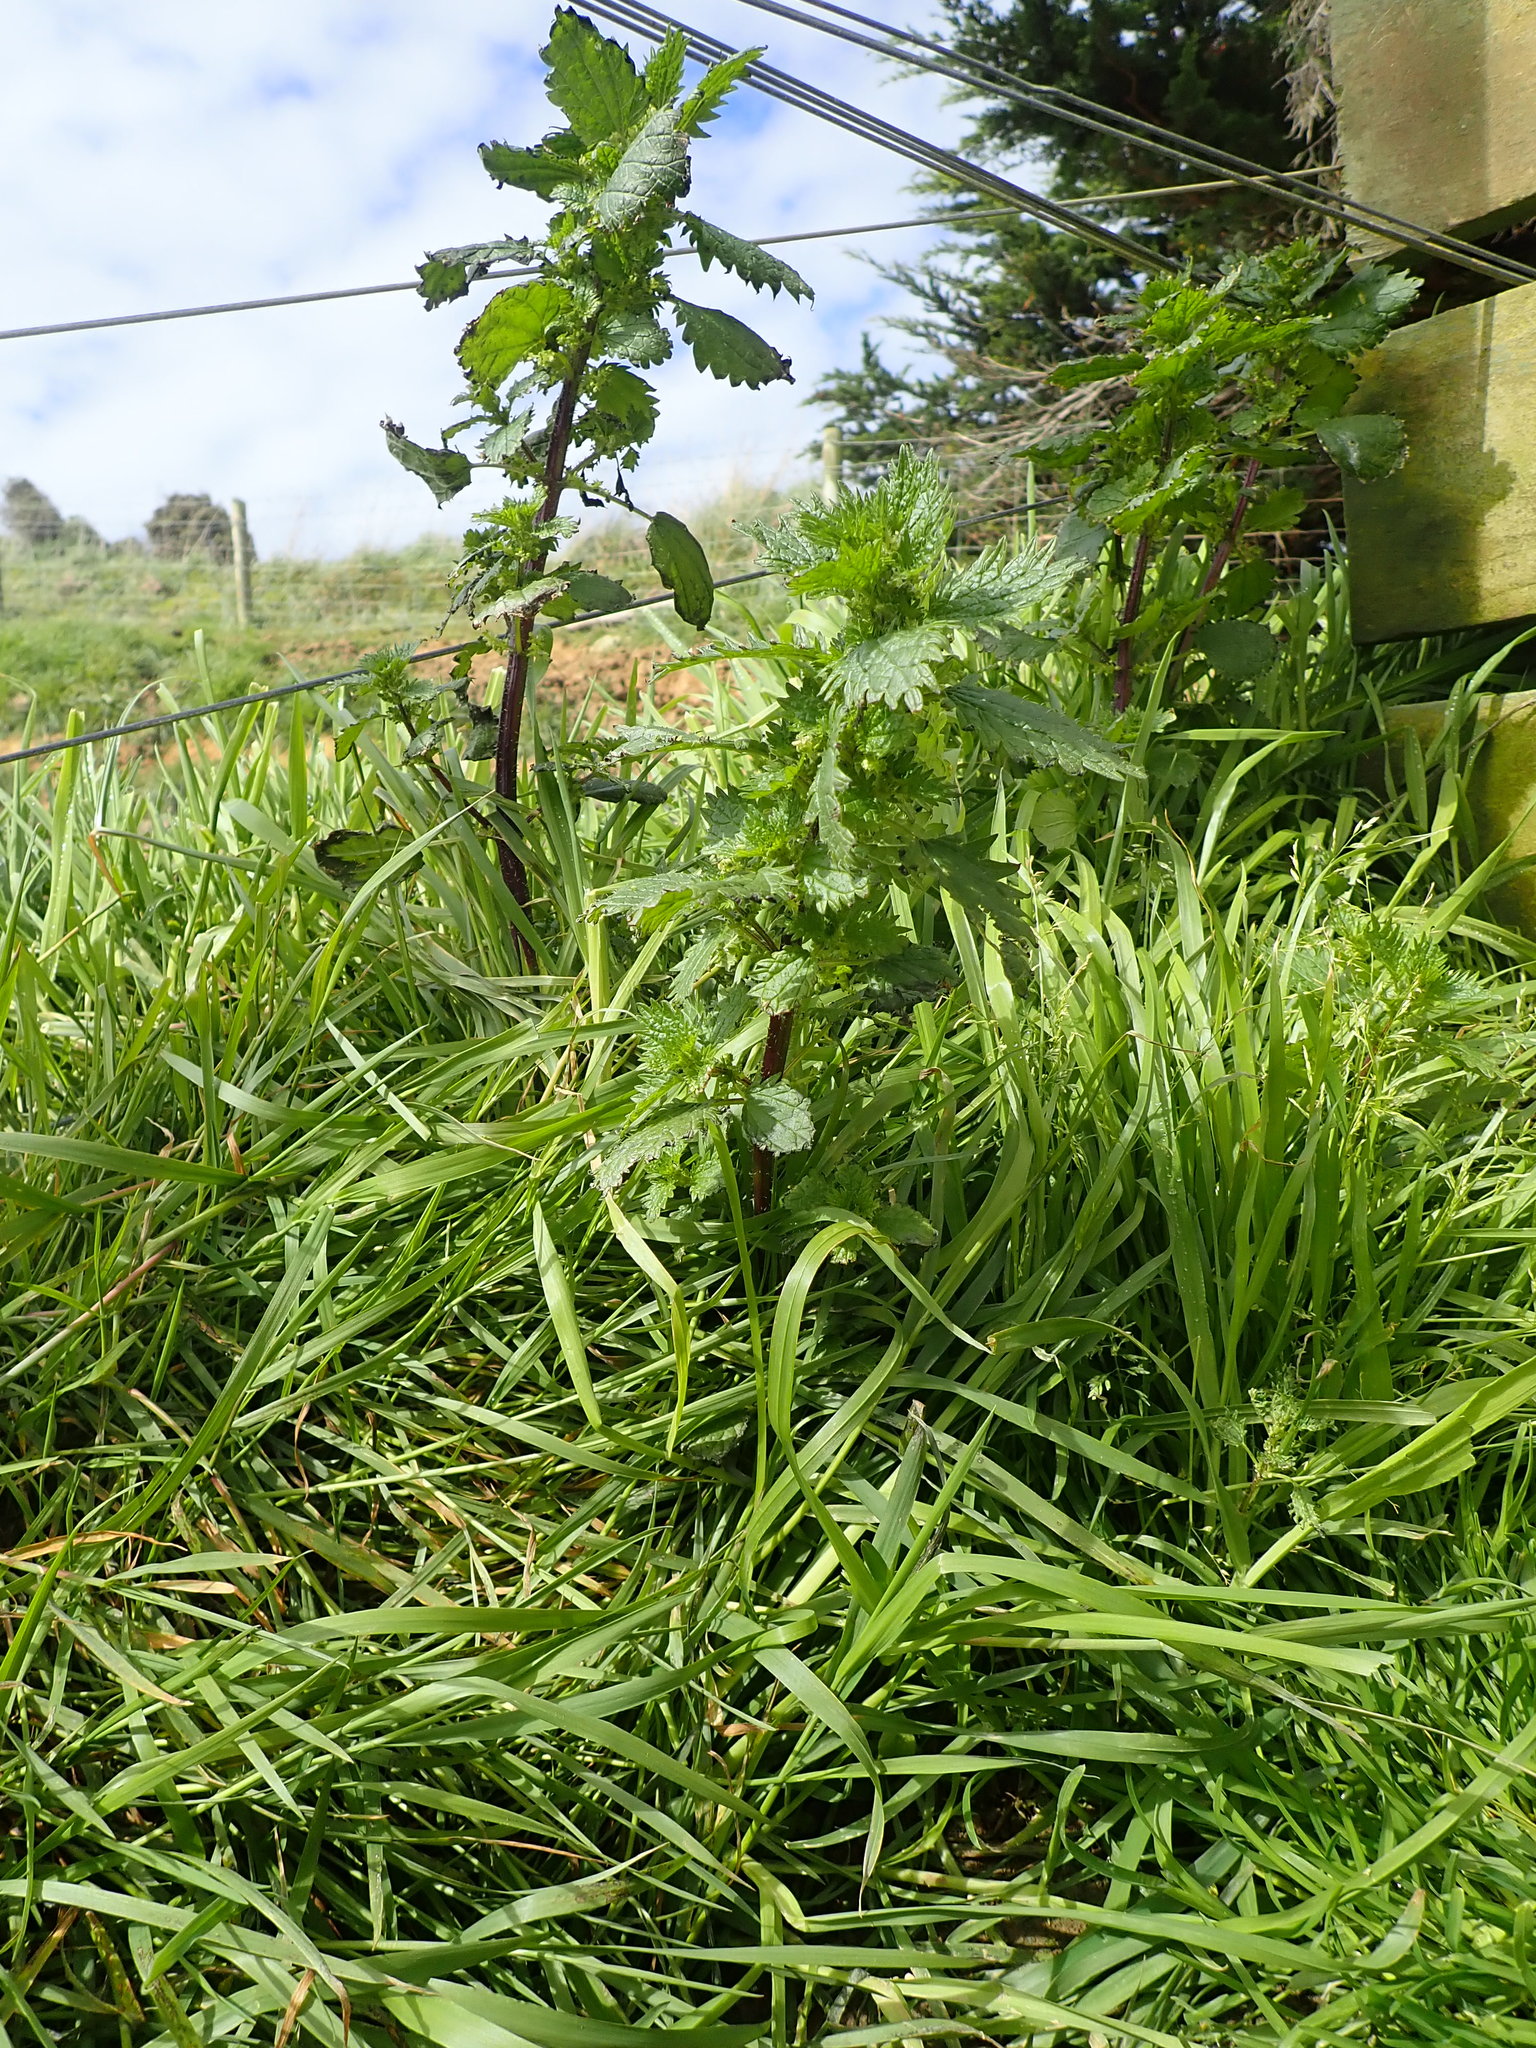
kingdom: Plantae
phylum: Tracheophyta
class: Magnoliopsida
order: Rosales
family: Urticaceae
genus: Urtica
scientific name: Urtica urens
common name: Dwarf nettle
